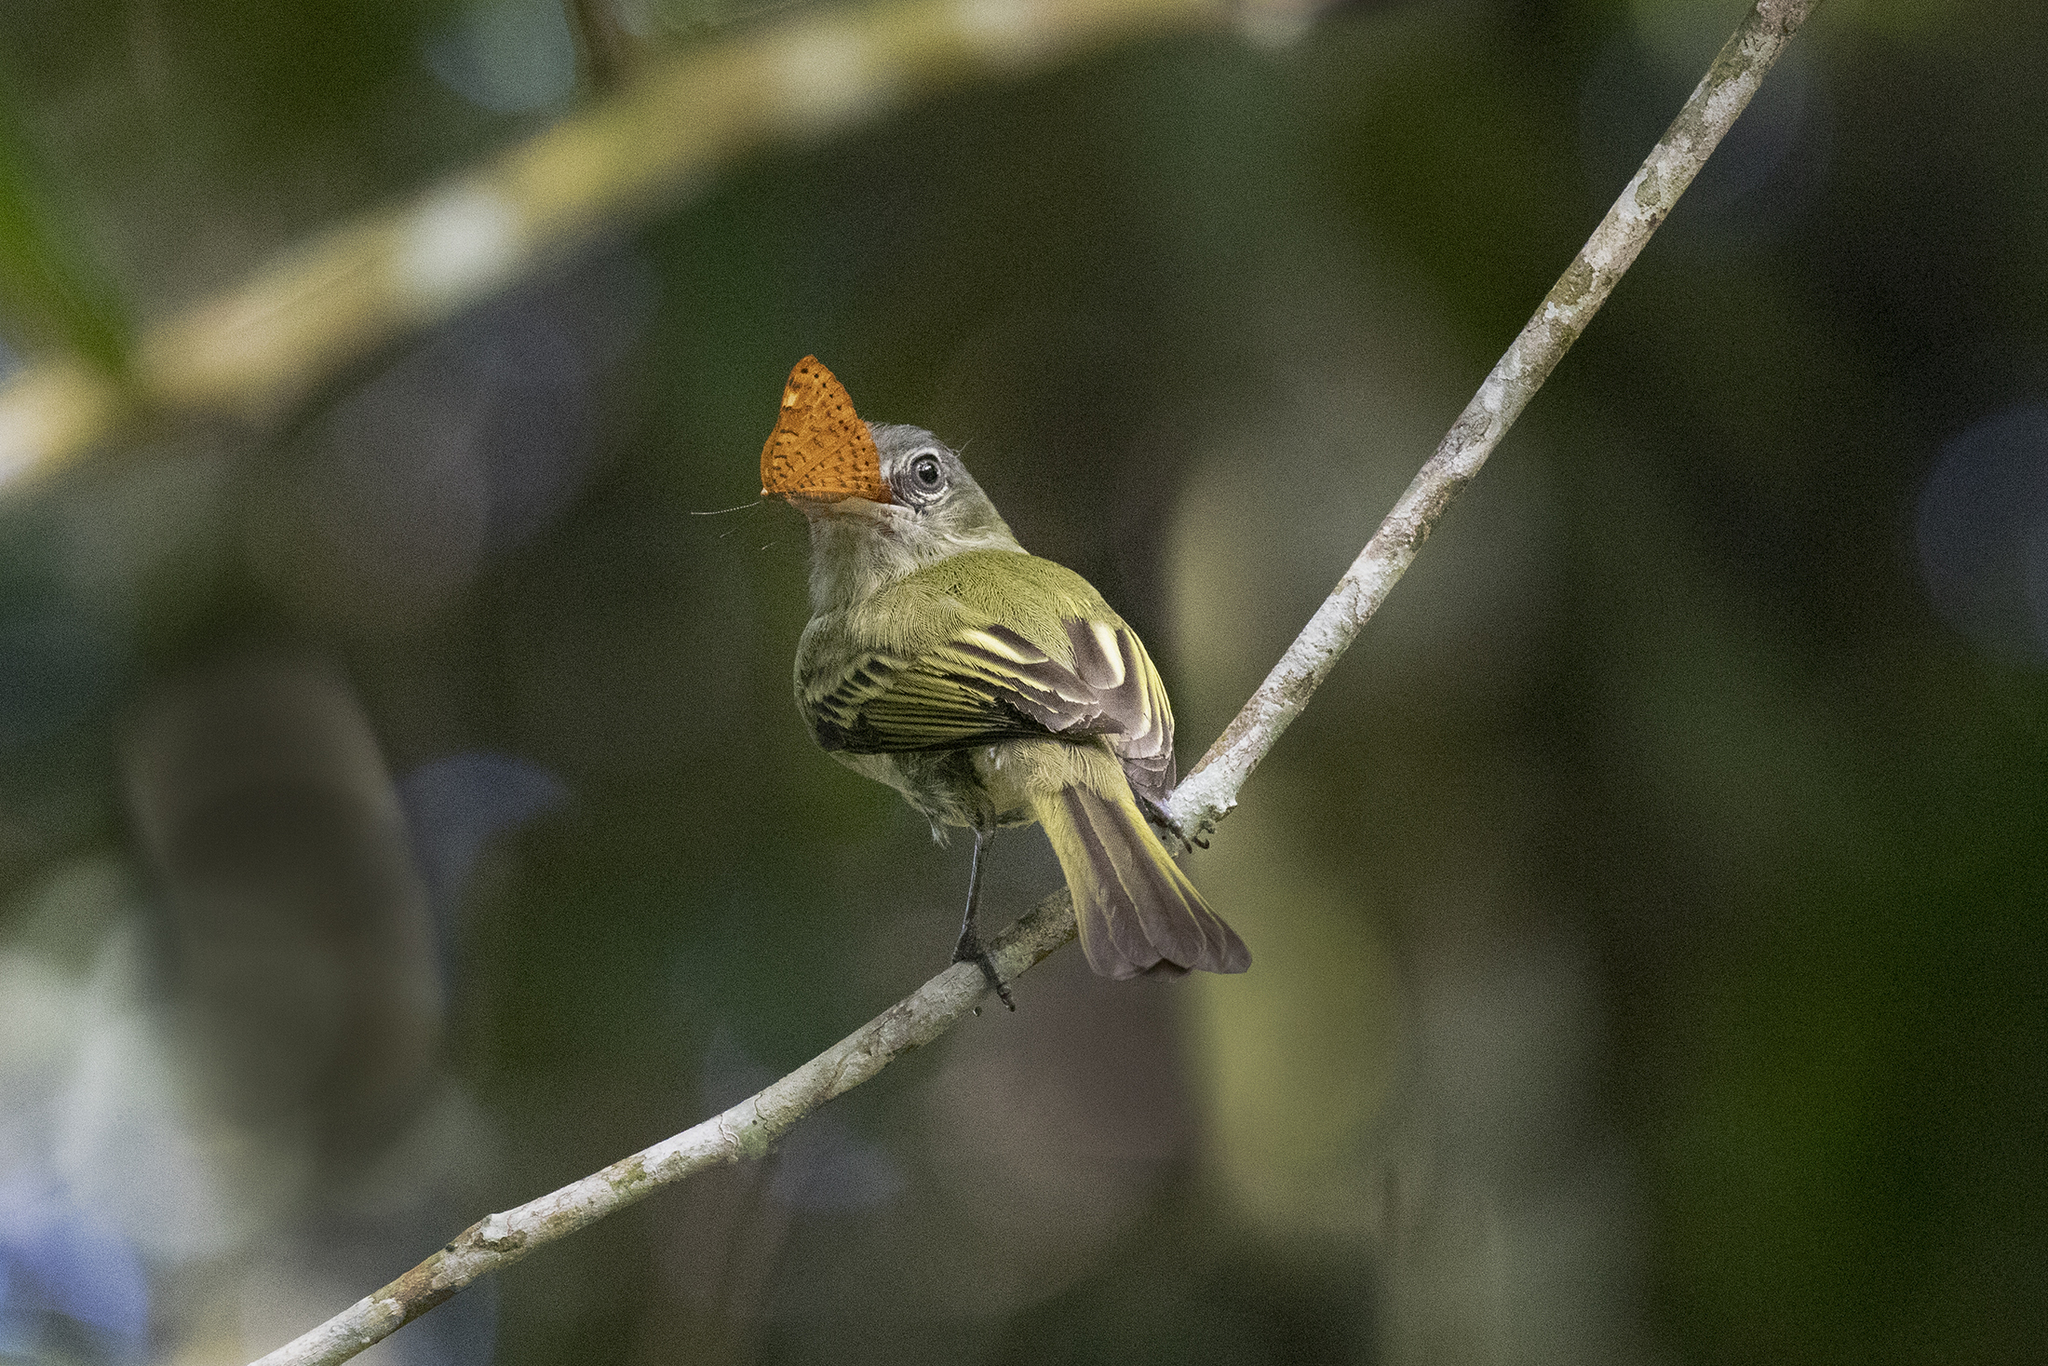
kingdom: Animalia
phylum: Arthropoda
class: Insecta
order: Lepidoptera
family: Lycaenidae
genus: Emesis
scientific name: Emesis cereus
